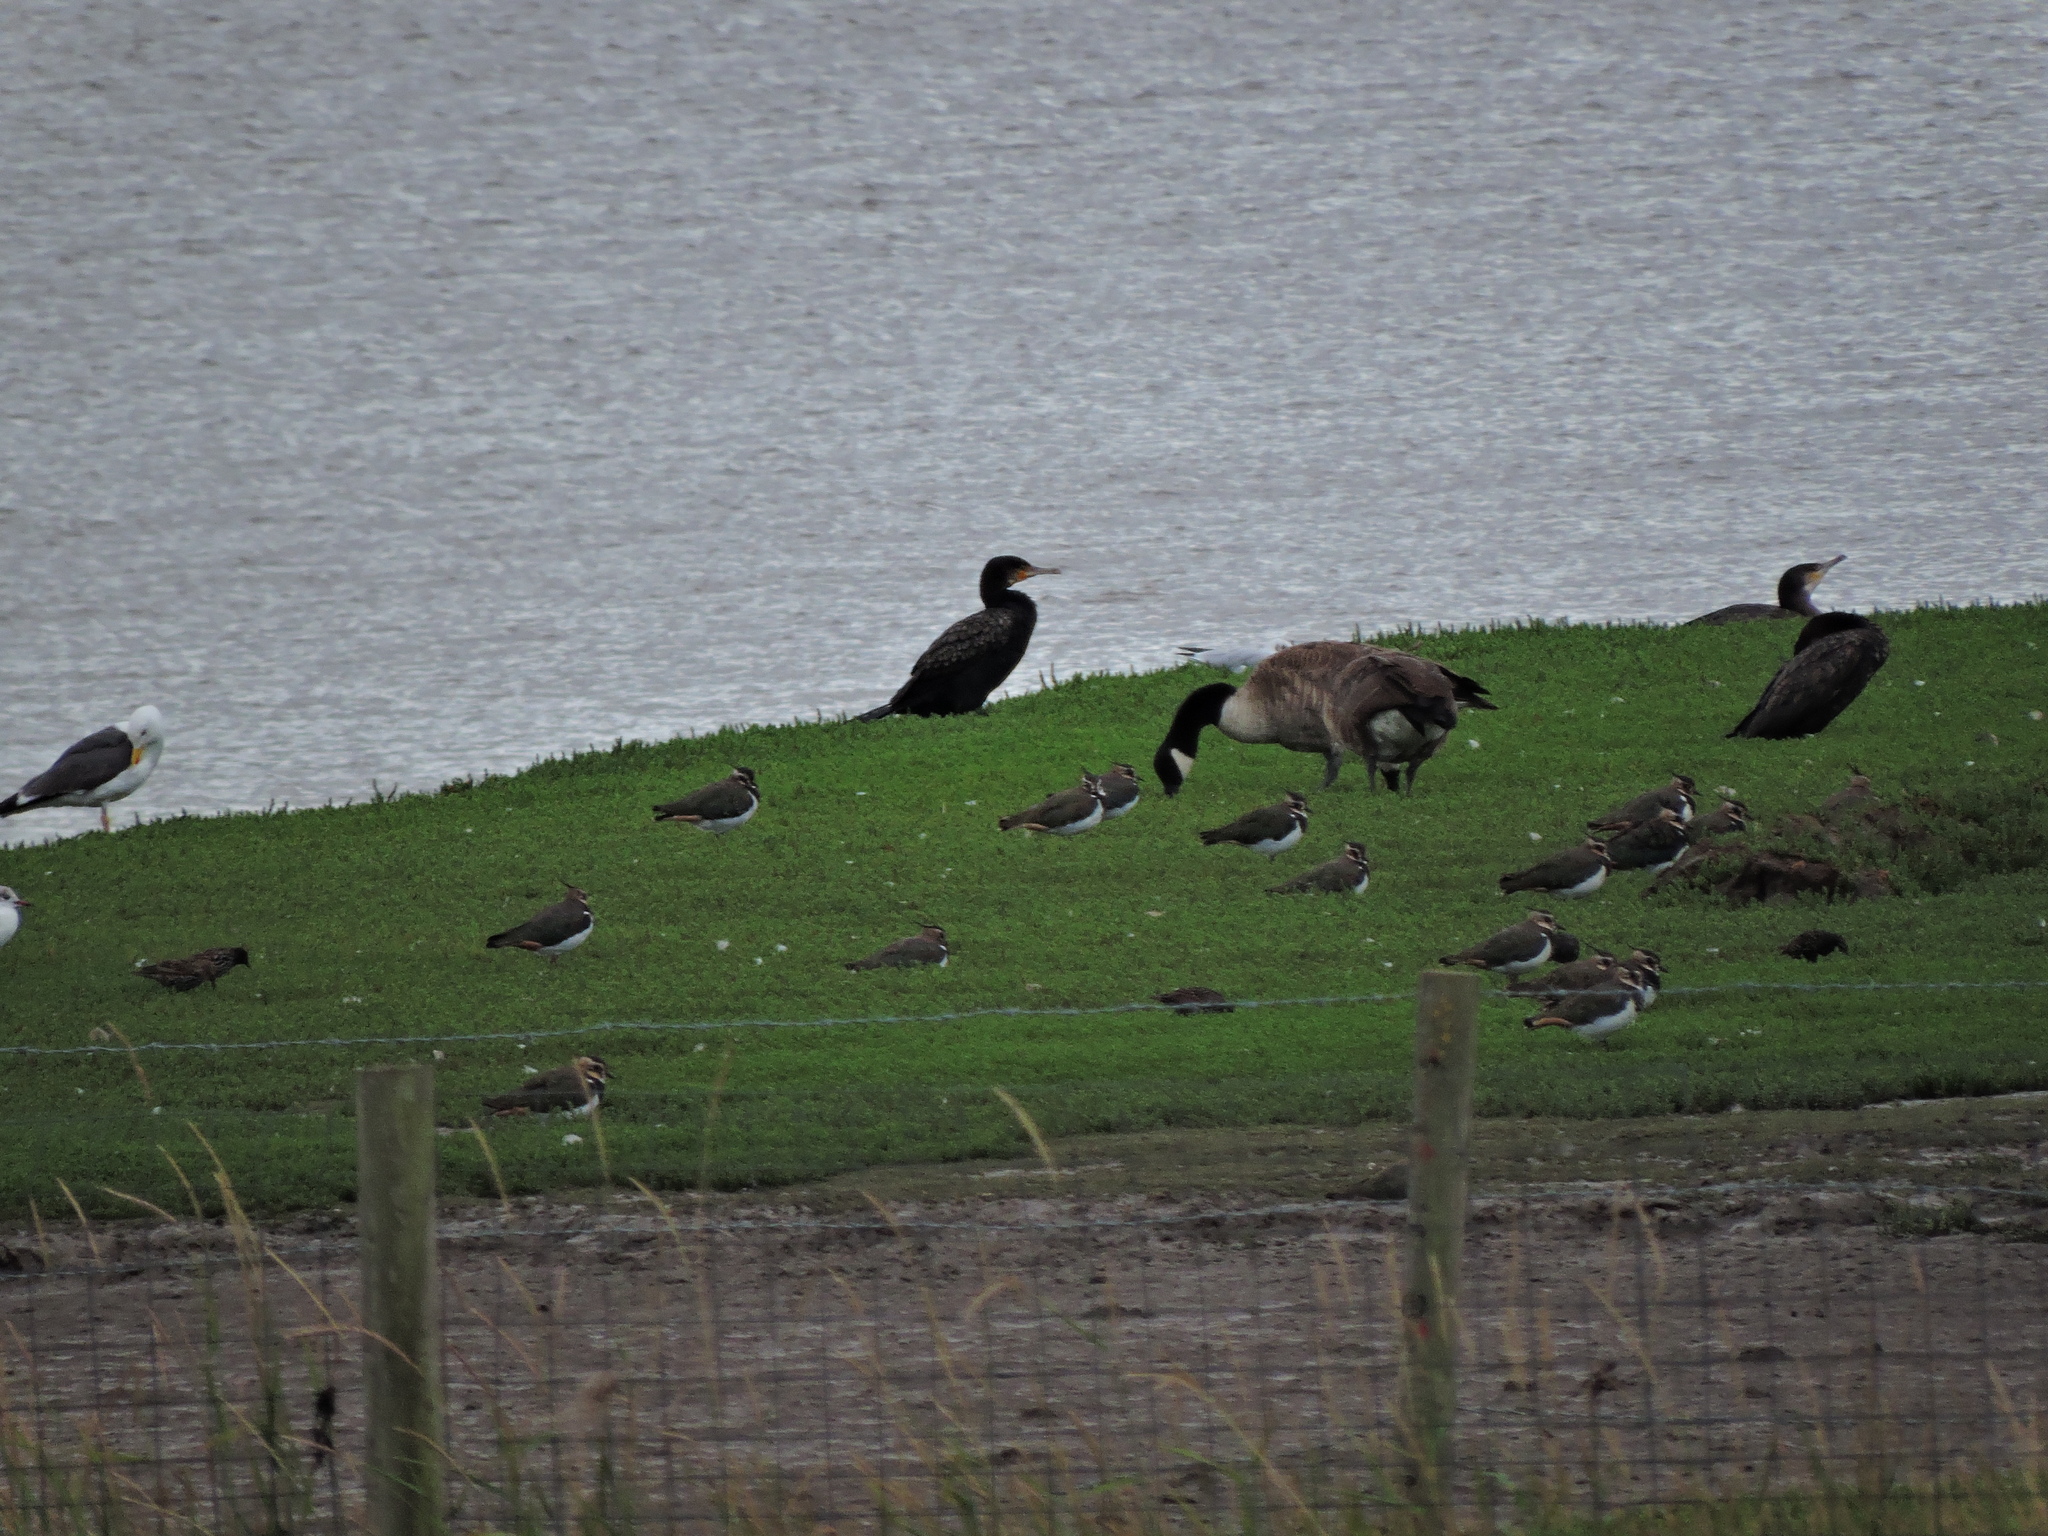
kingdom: Animalia
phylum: Chordata
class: Aves
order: Suliformes
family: Phalacrocoracidae
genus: Phalacrocorax
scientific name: Phalacrocorax carbo
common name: Great cormorant
